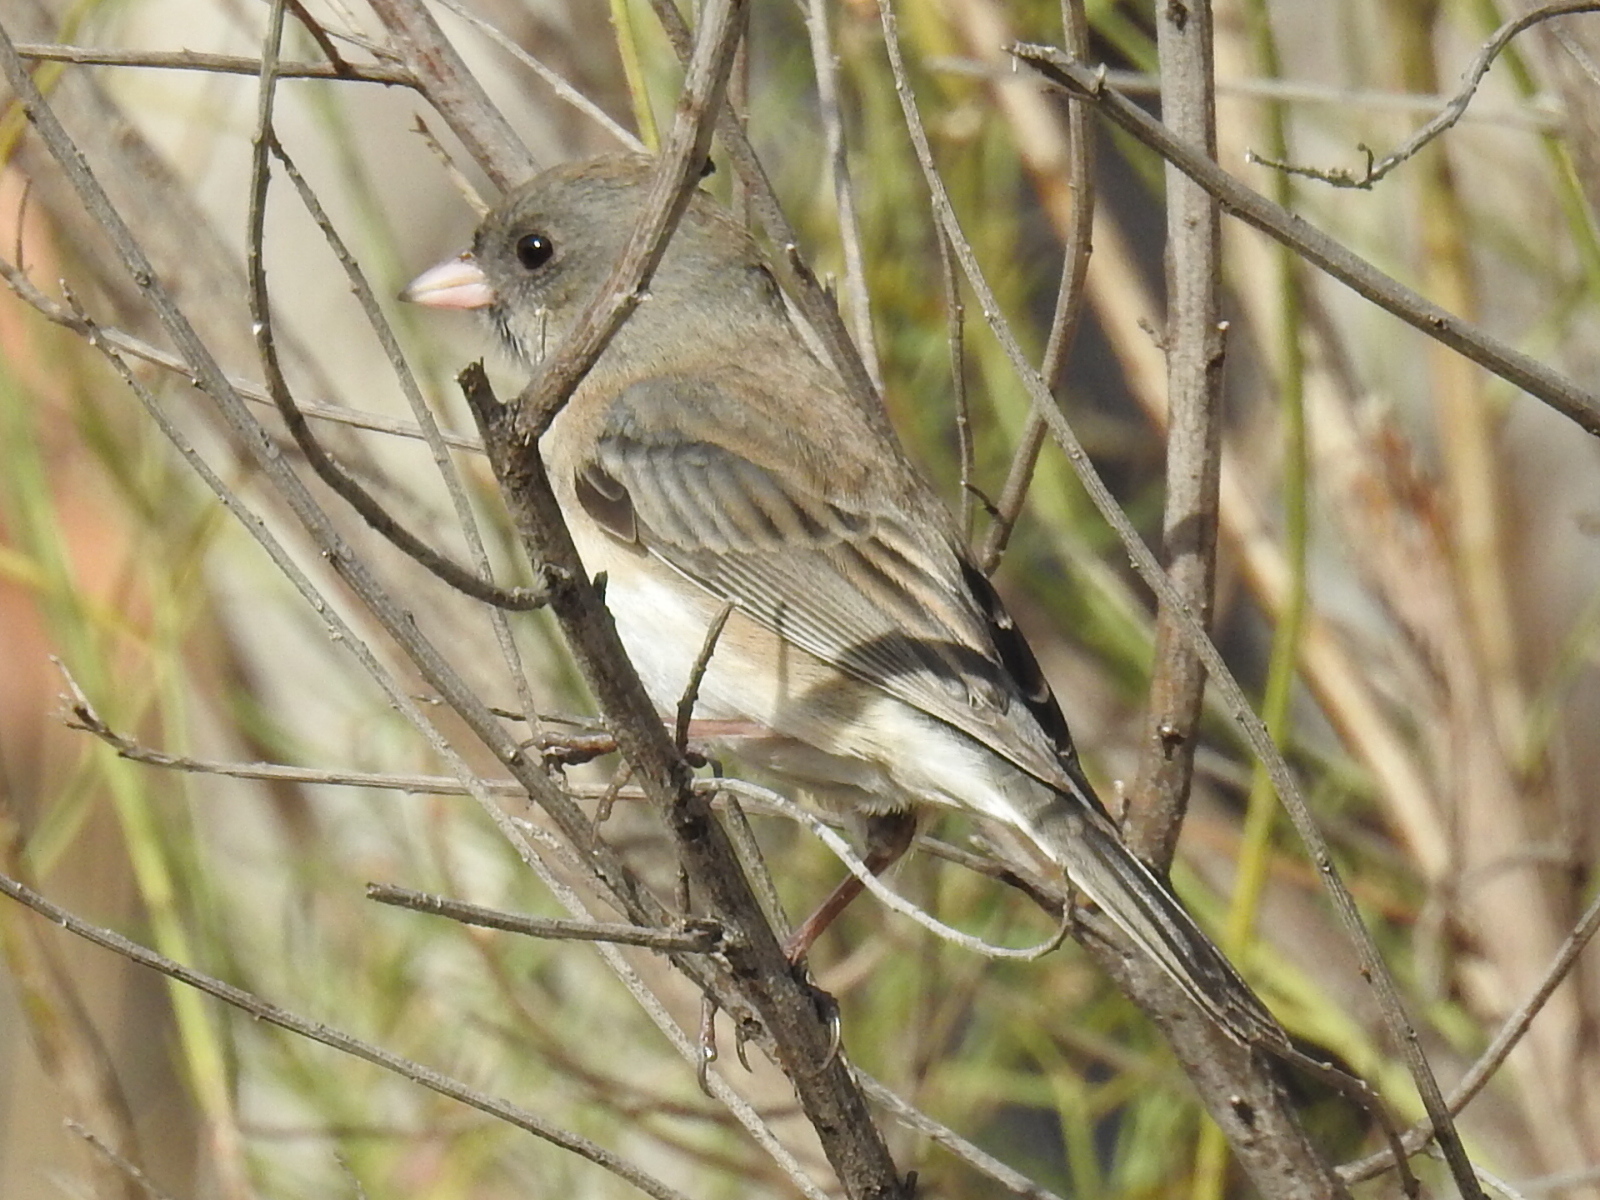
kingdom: Animalia
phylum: Chordata
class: Aves
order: Passeriformes
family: Passerellidae
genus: Junco
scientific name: Junco hyemalis
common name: Dark-eyed junco
